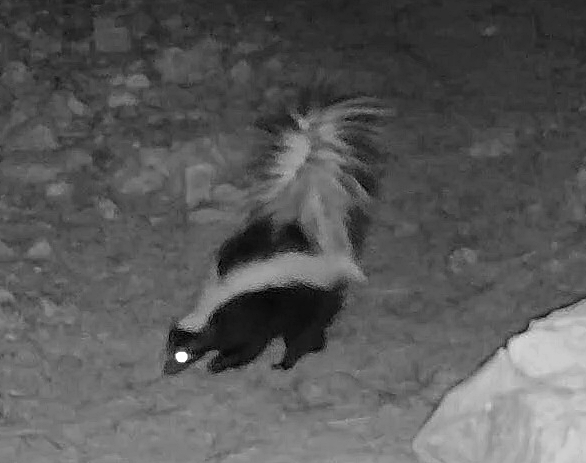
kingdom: Animalia
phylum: Chordata
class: Mammalia
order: Carnivora
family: Mephitidae
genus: Mephitis
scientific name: Mephitis mephitis
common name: Striped skunk
